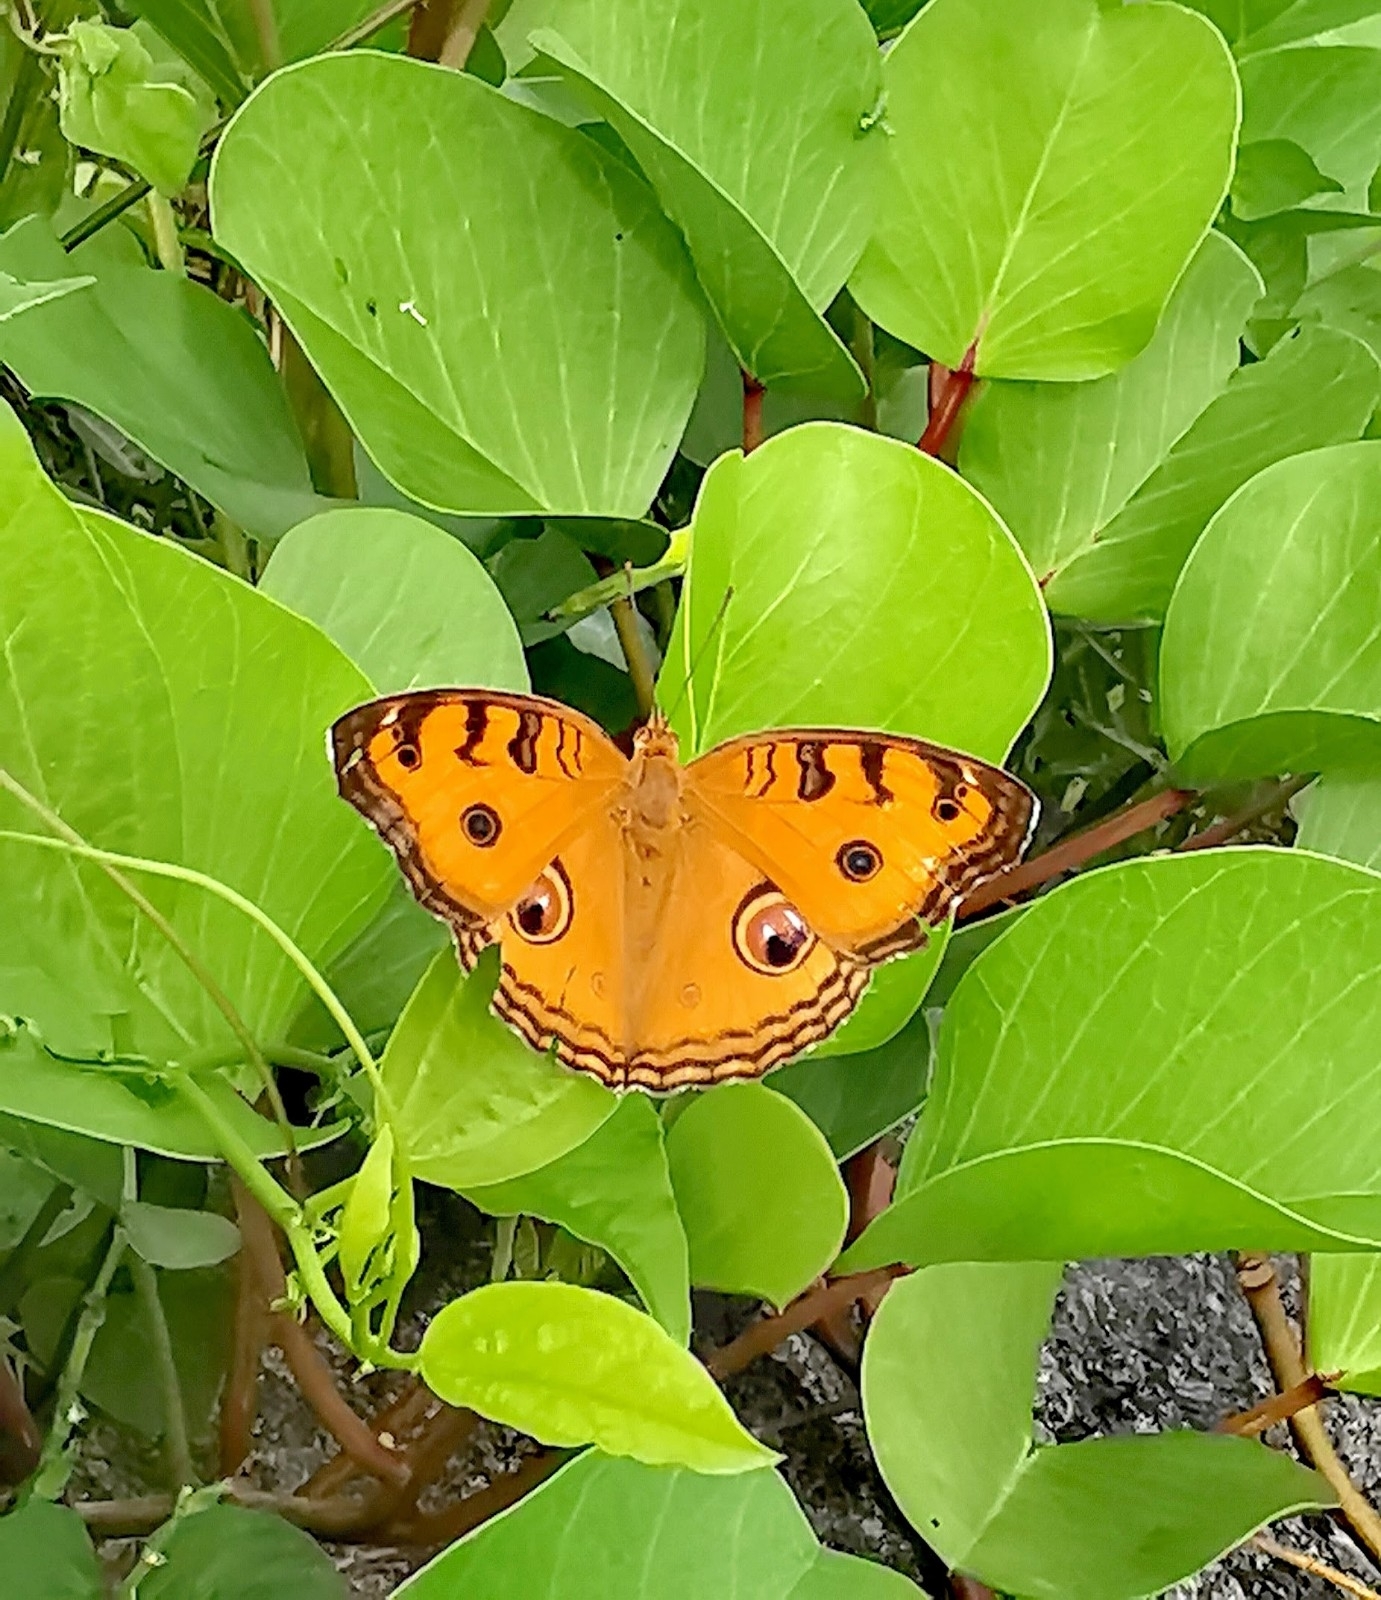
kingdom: Animalia
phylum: Arthropoda
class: Insecta
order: Lepidoptera
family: Nymphalidae
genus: Junonia
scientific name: Junonia almana
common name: Peacock pansy
